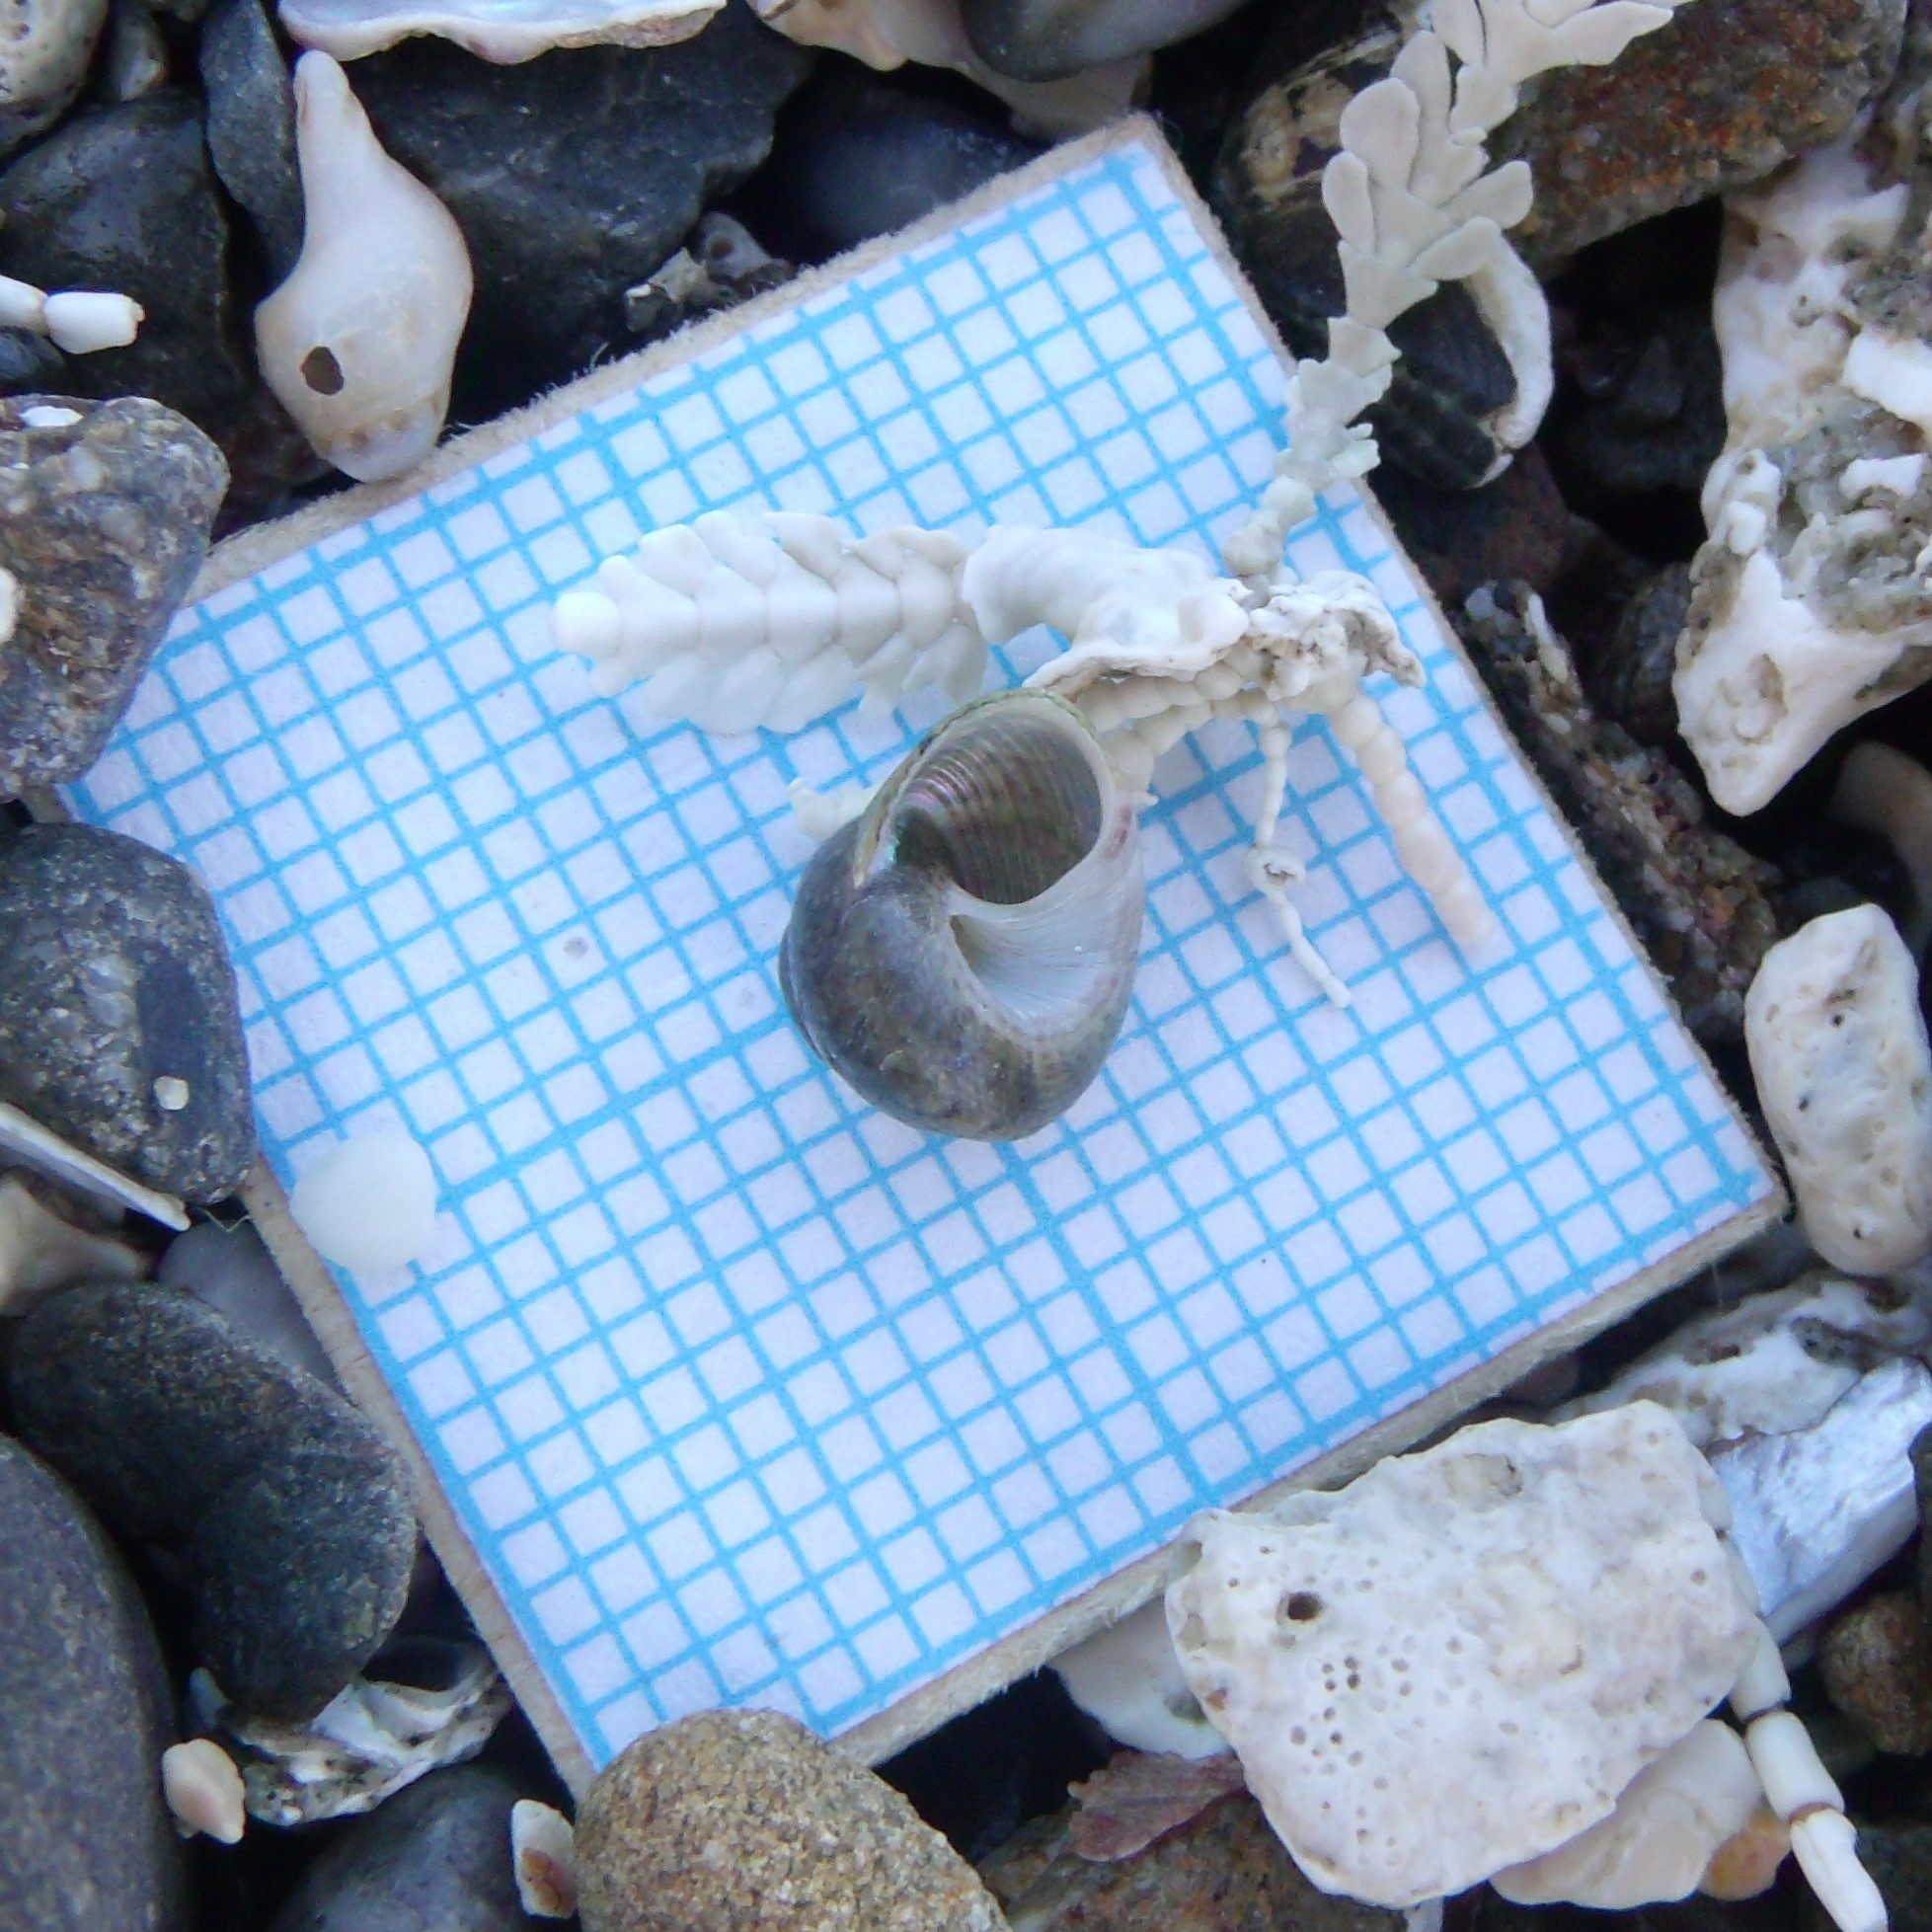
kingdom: Animalia
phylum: Mollusca
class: Gastropoda
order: Trochida
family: Trochidae
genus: Micrelenchus
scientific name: Micrelenchus tessellatus
